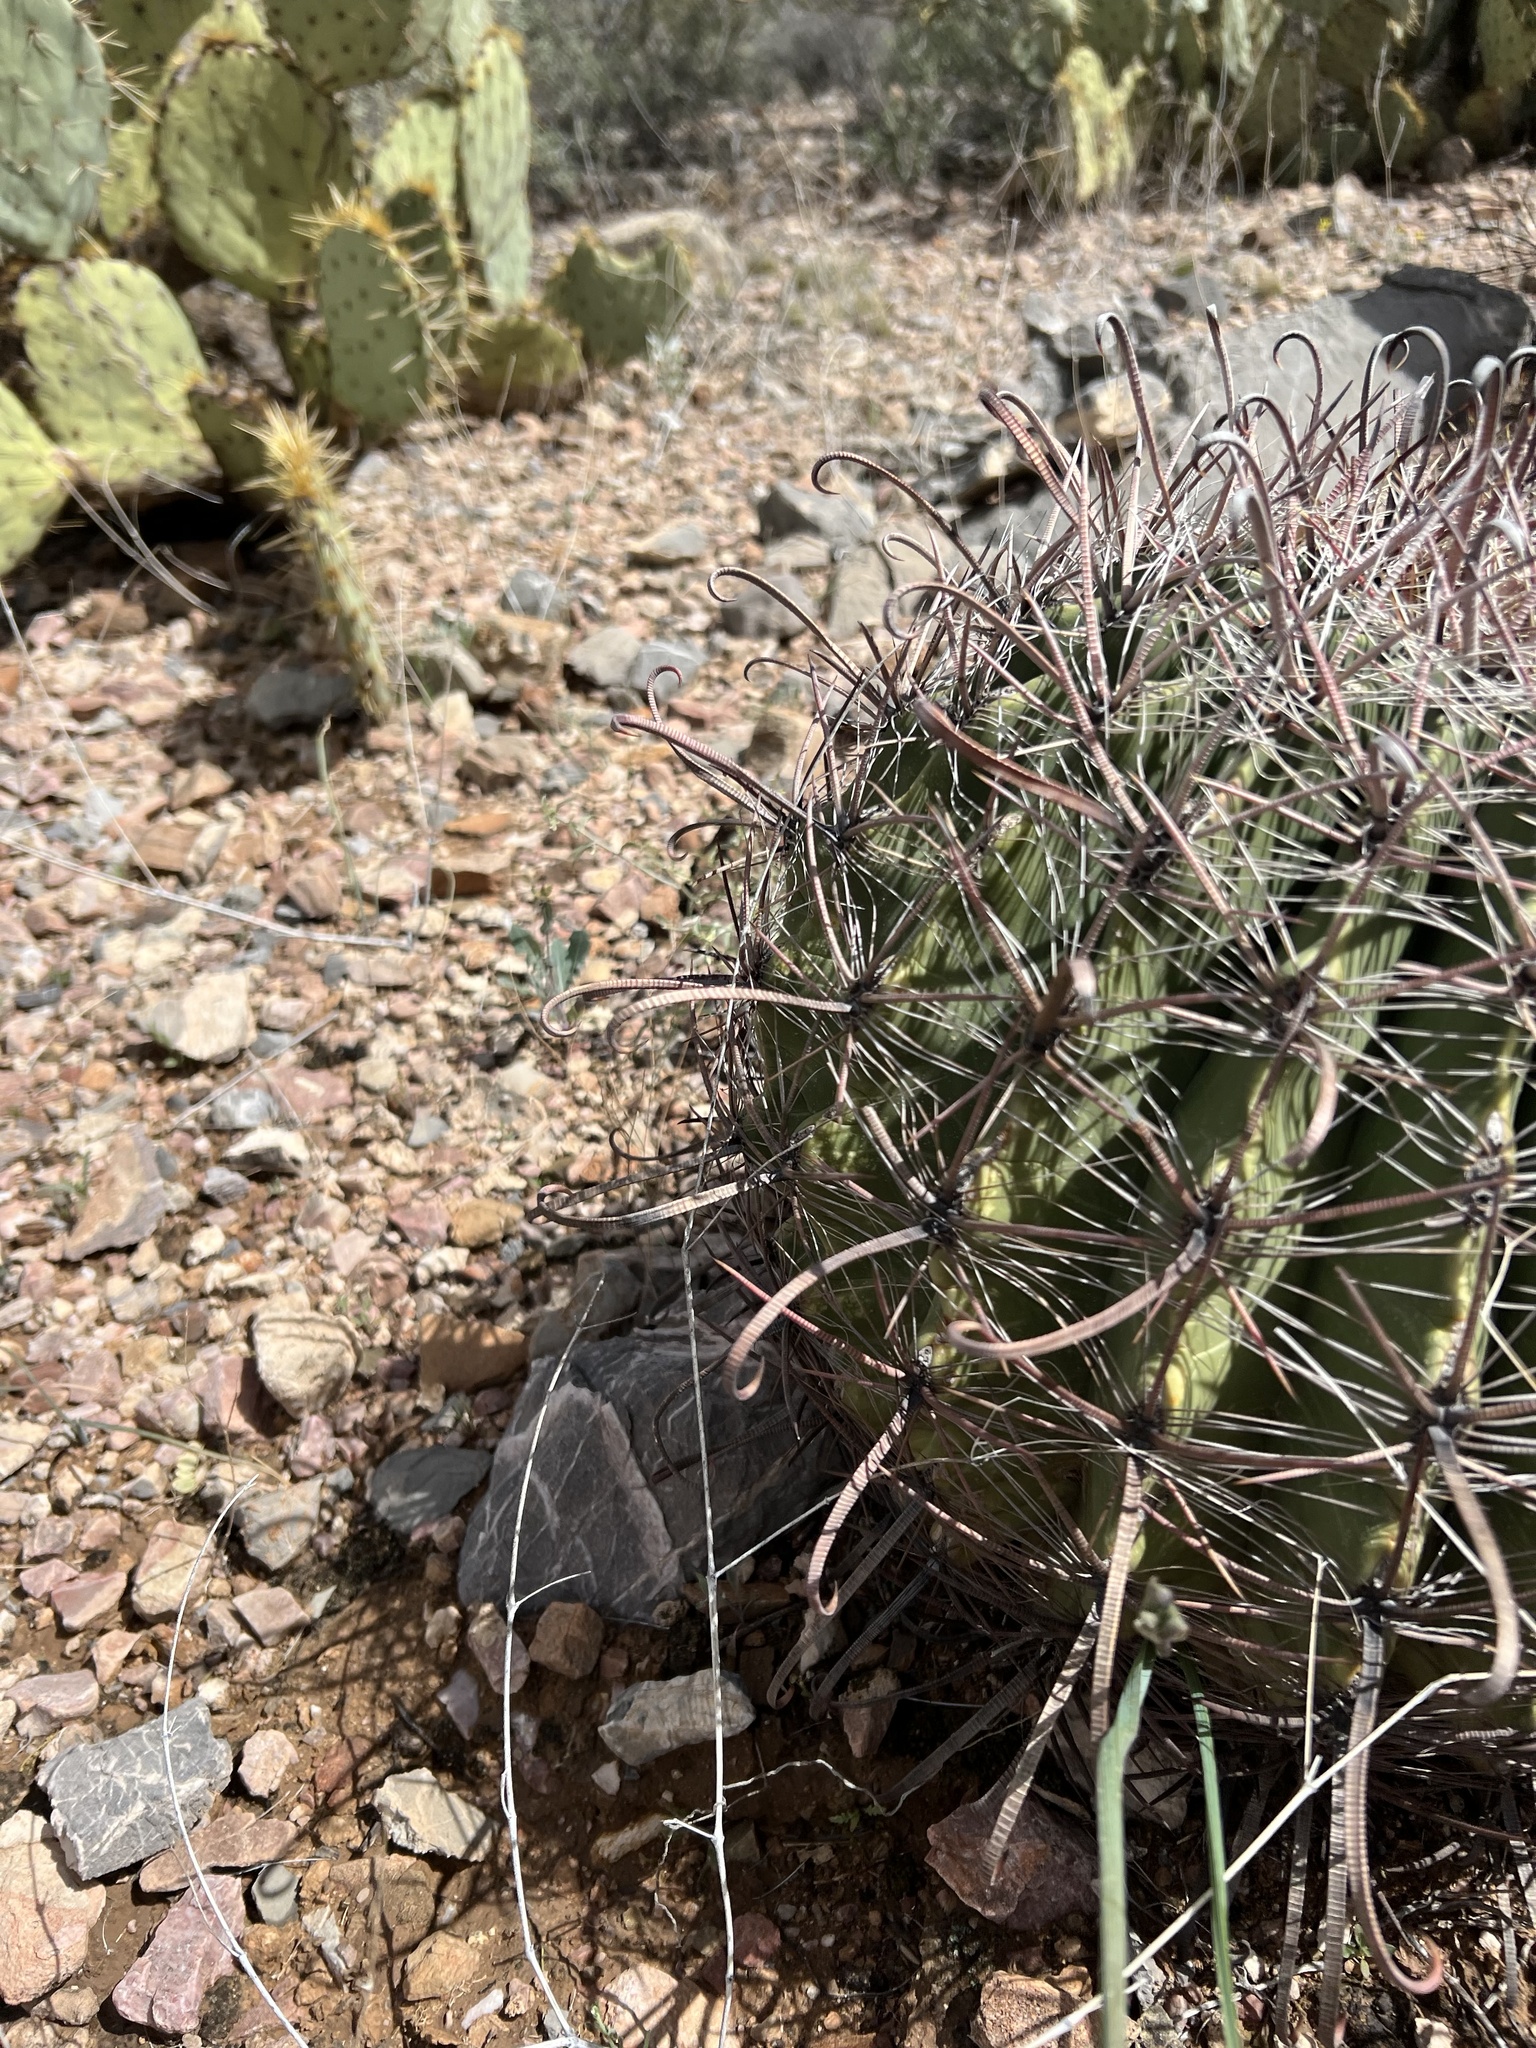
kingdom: Plantae
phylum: Tracheophyta
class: Magnoliopsida
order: Caryophyllales
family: Cactaceae
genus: Ferocactus
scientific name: Ferocactus wislizeni
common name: Candy barrel cactus
